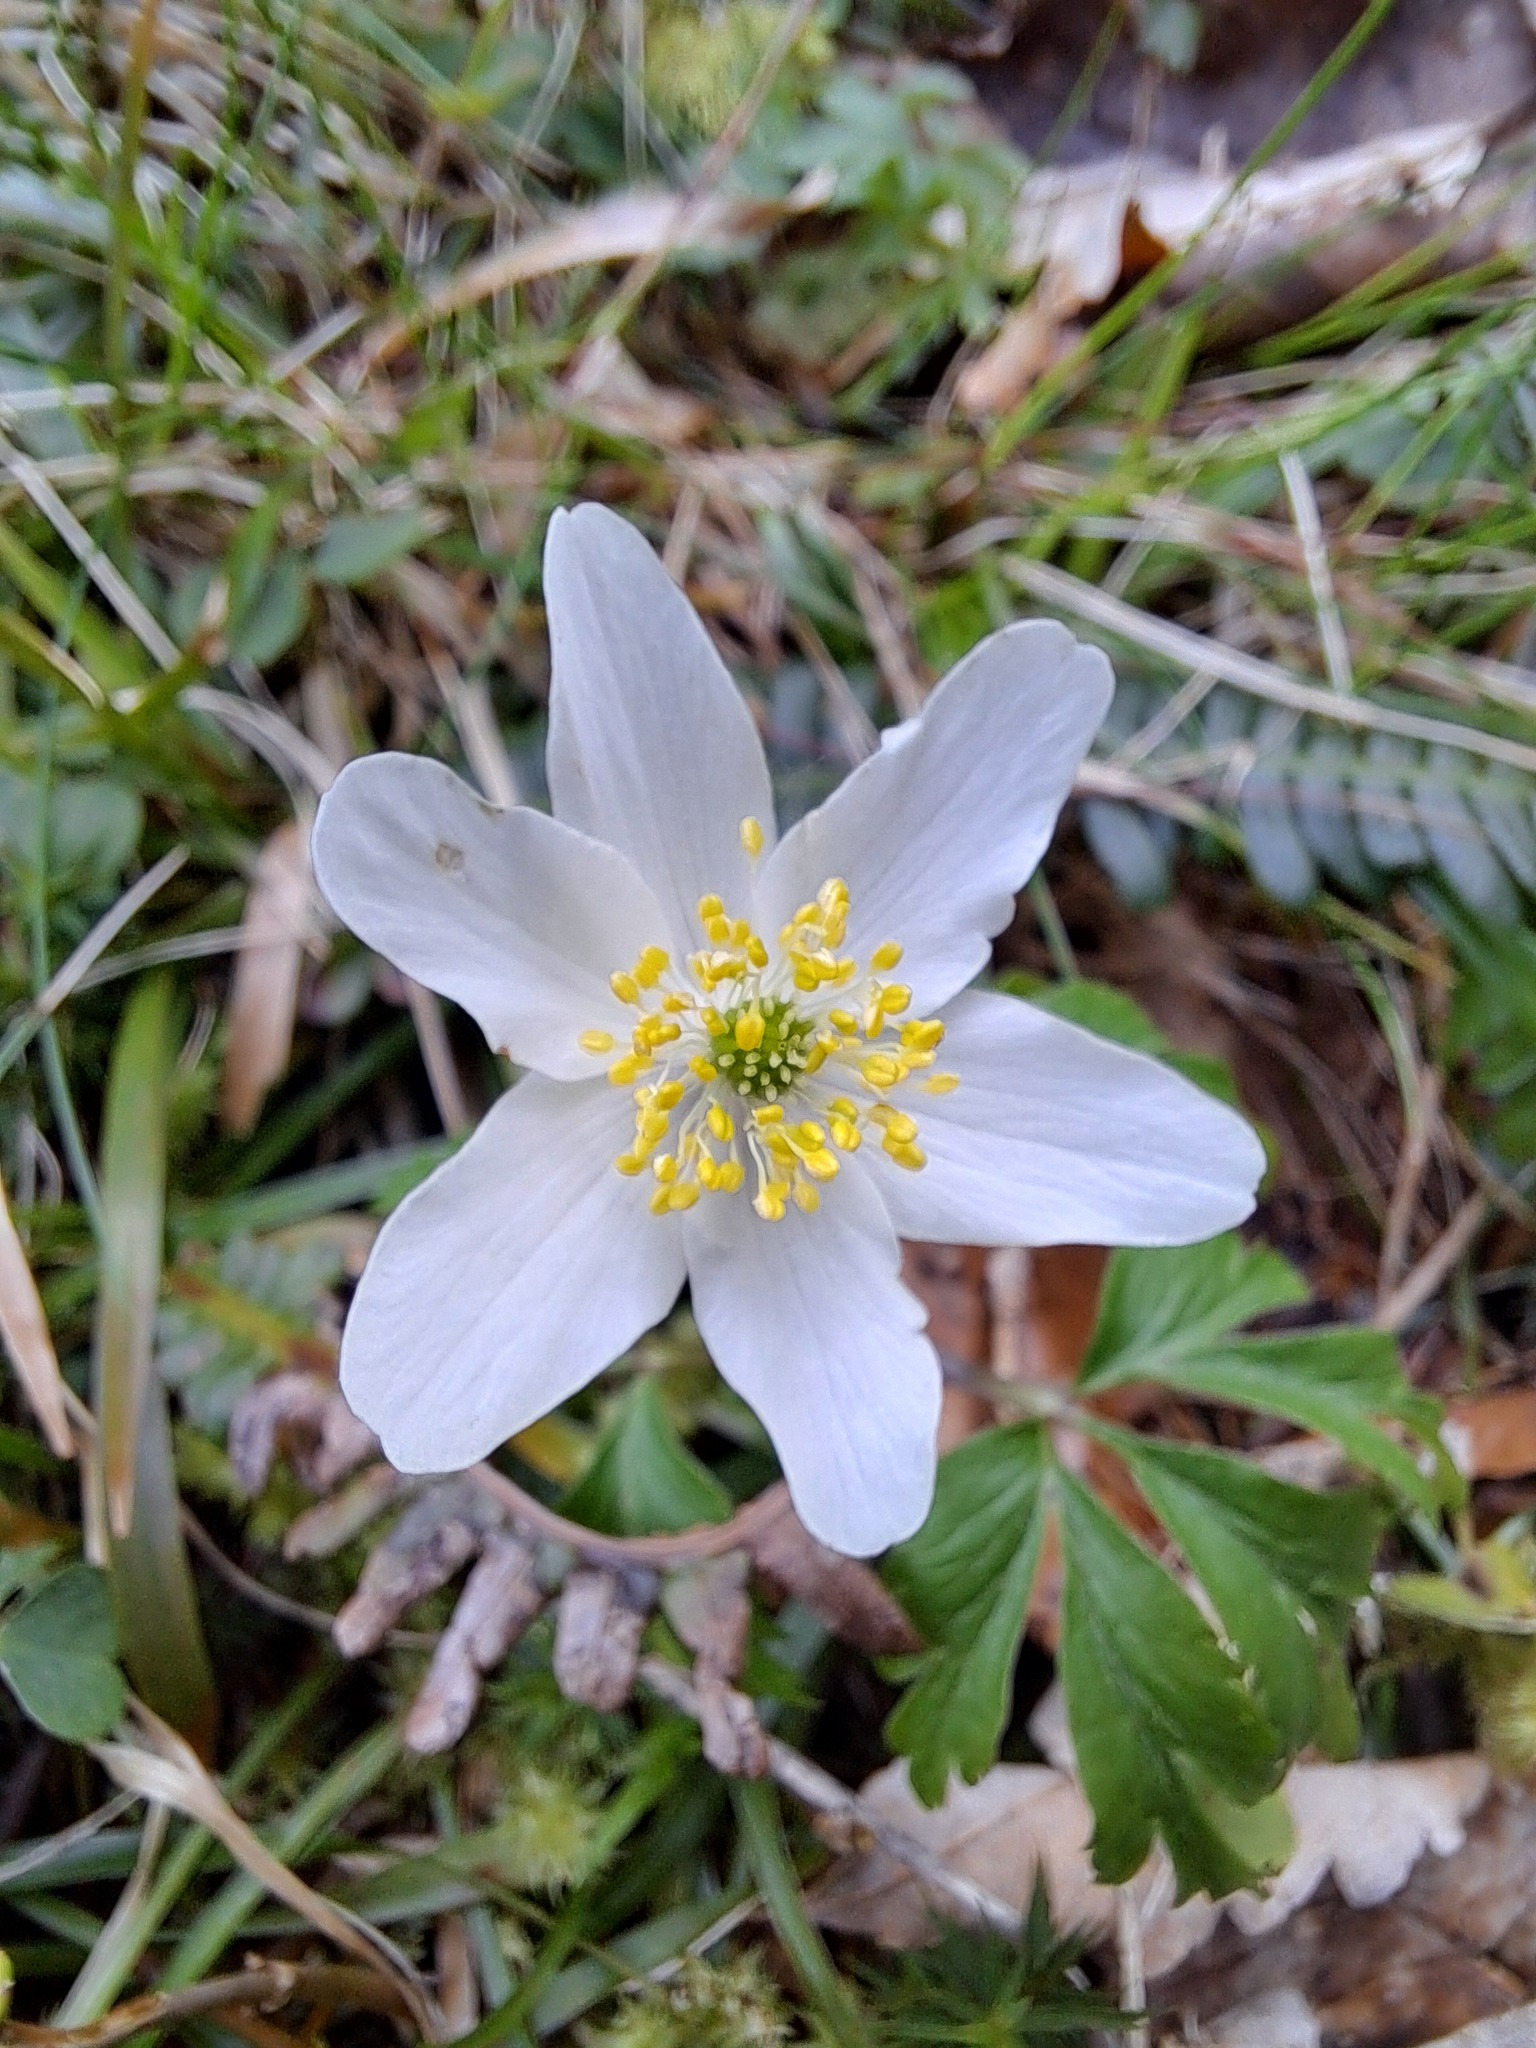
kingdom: Plantae
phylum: Tracheophyta
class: Magnoliopsida
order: Ranunculales
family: Ranunculaceae
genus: Anemone
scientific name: Anemone nemorosa
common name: Wood anemone
